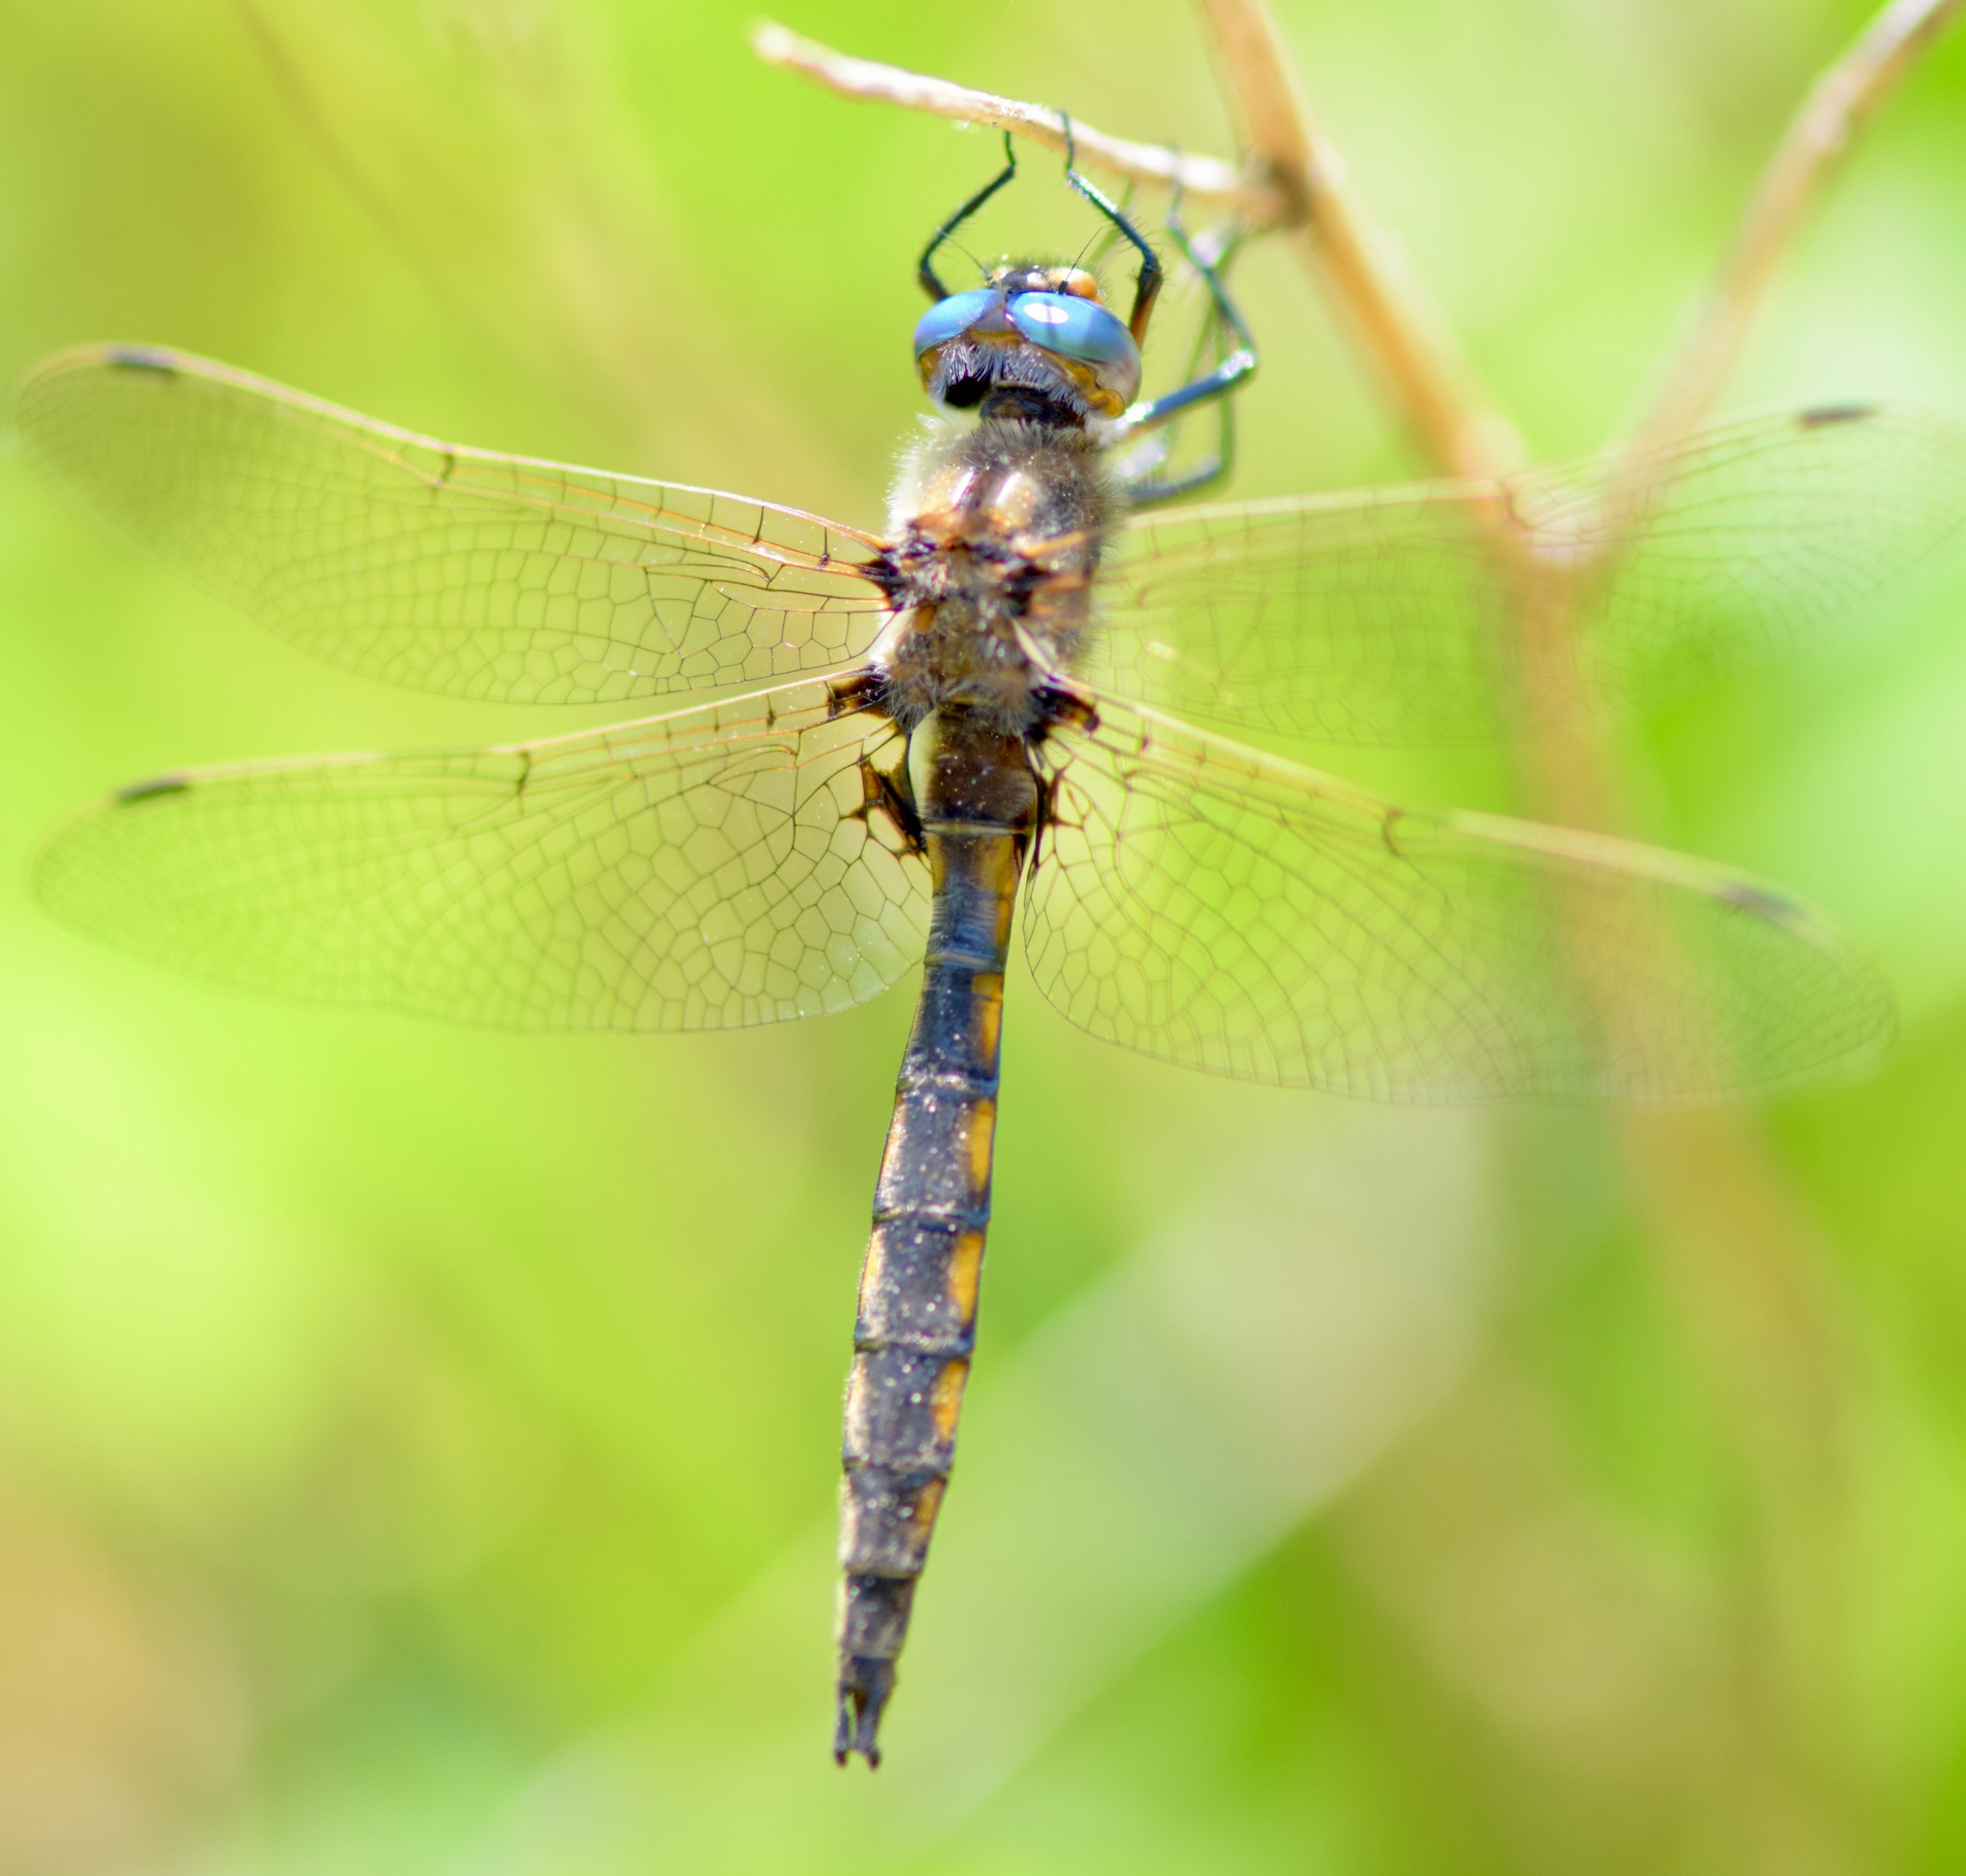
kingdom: Animalia
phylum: Arthropoda
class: Insecta
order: Odonata
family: Corduliidae
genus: Epitheca
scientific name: Epitheca canis
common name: Beaverpond baskettail
